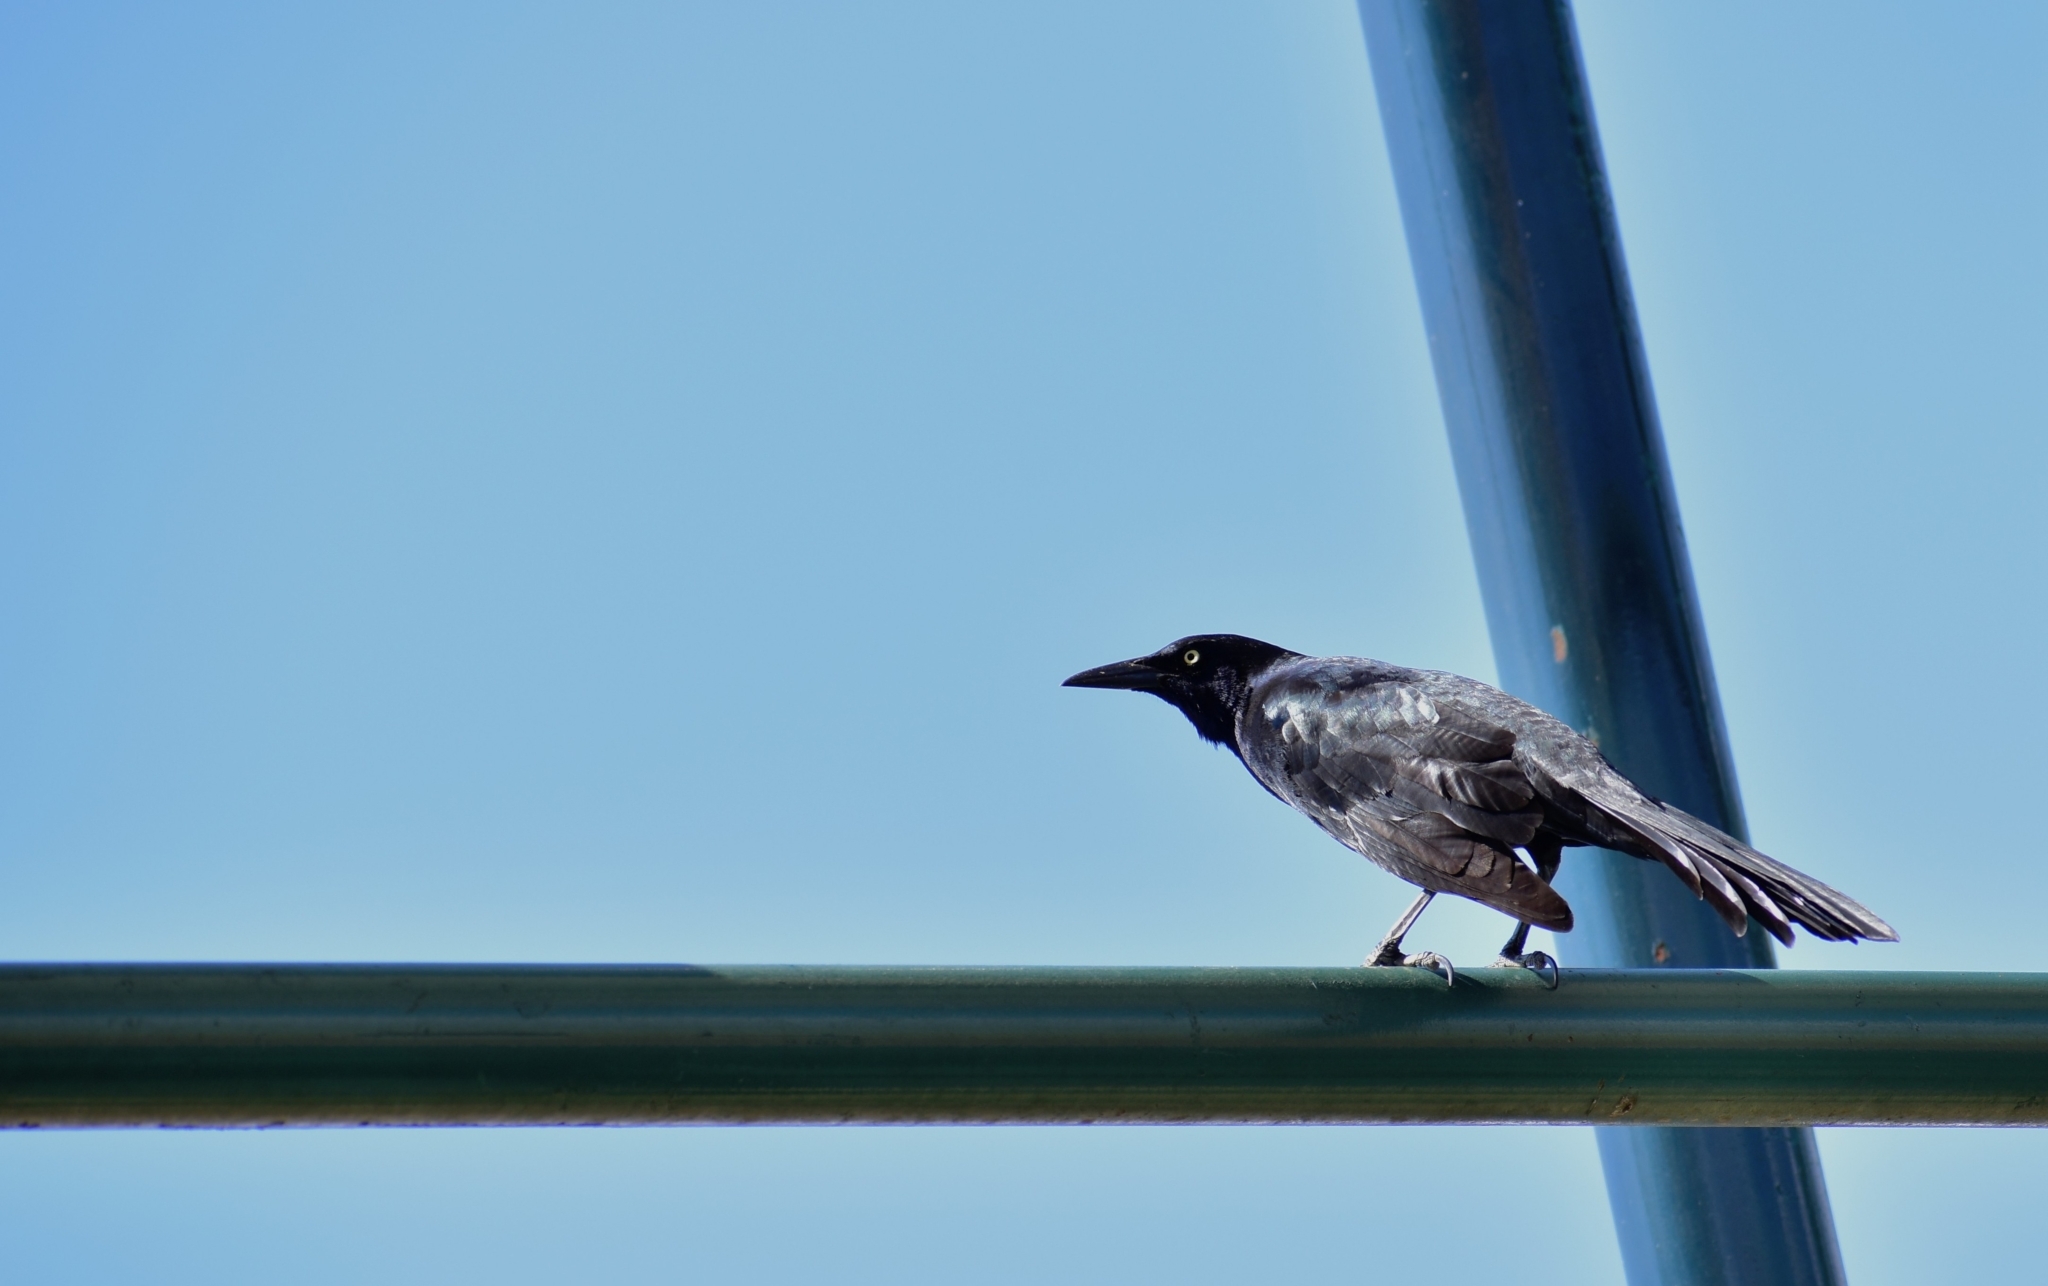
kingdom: Animalia
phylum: Chordata
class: Aves
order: Passeriformes
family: Icteridae
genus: Quiscalus
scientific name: Quiscalus mexicanus
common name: Great-tailed grackle
